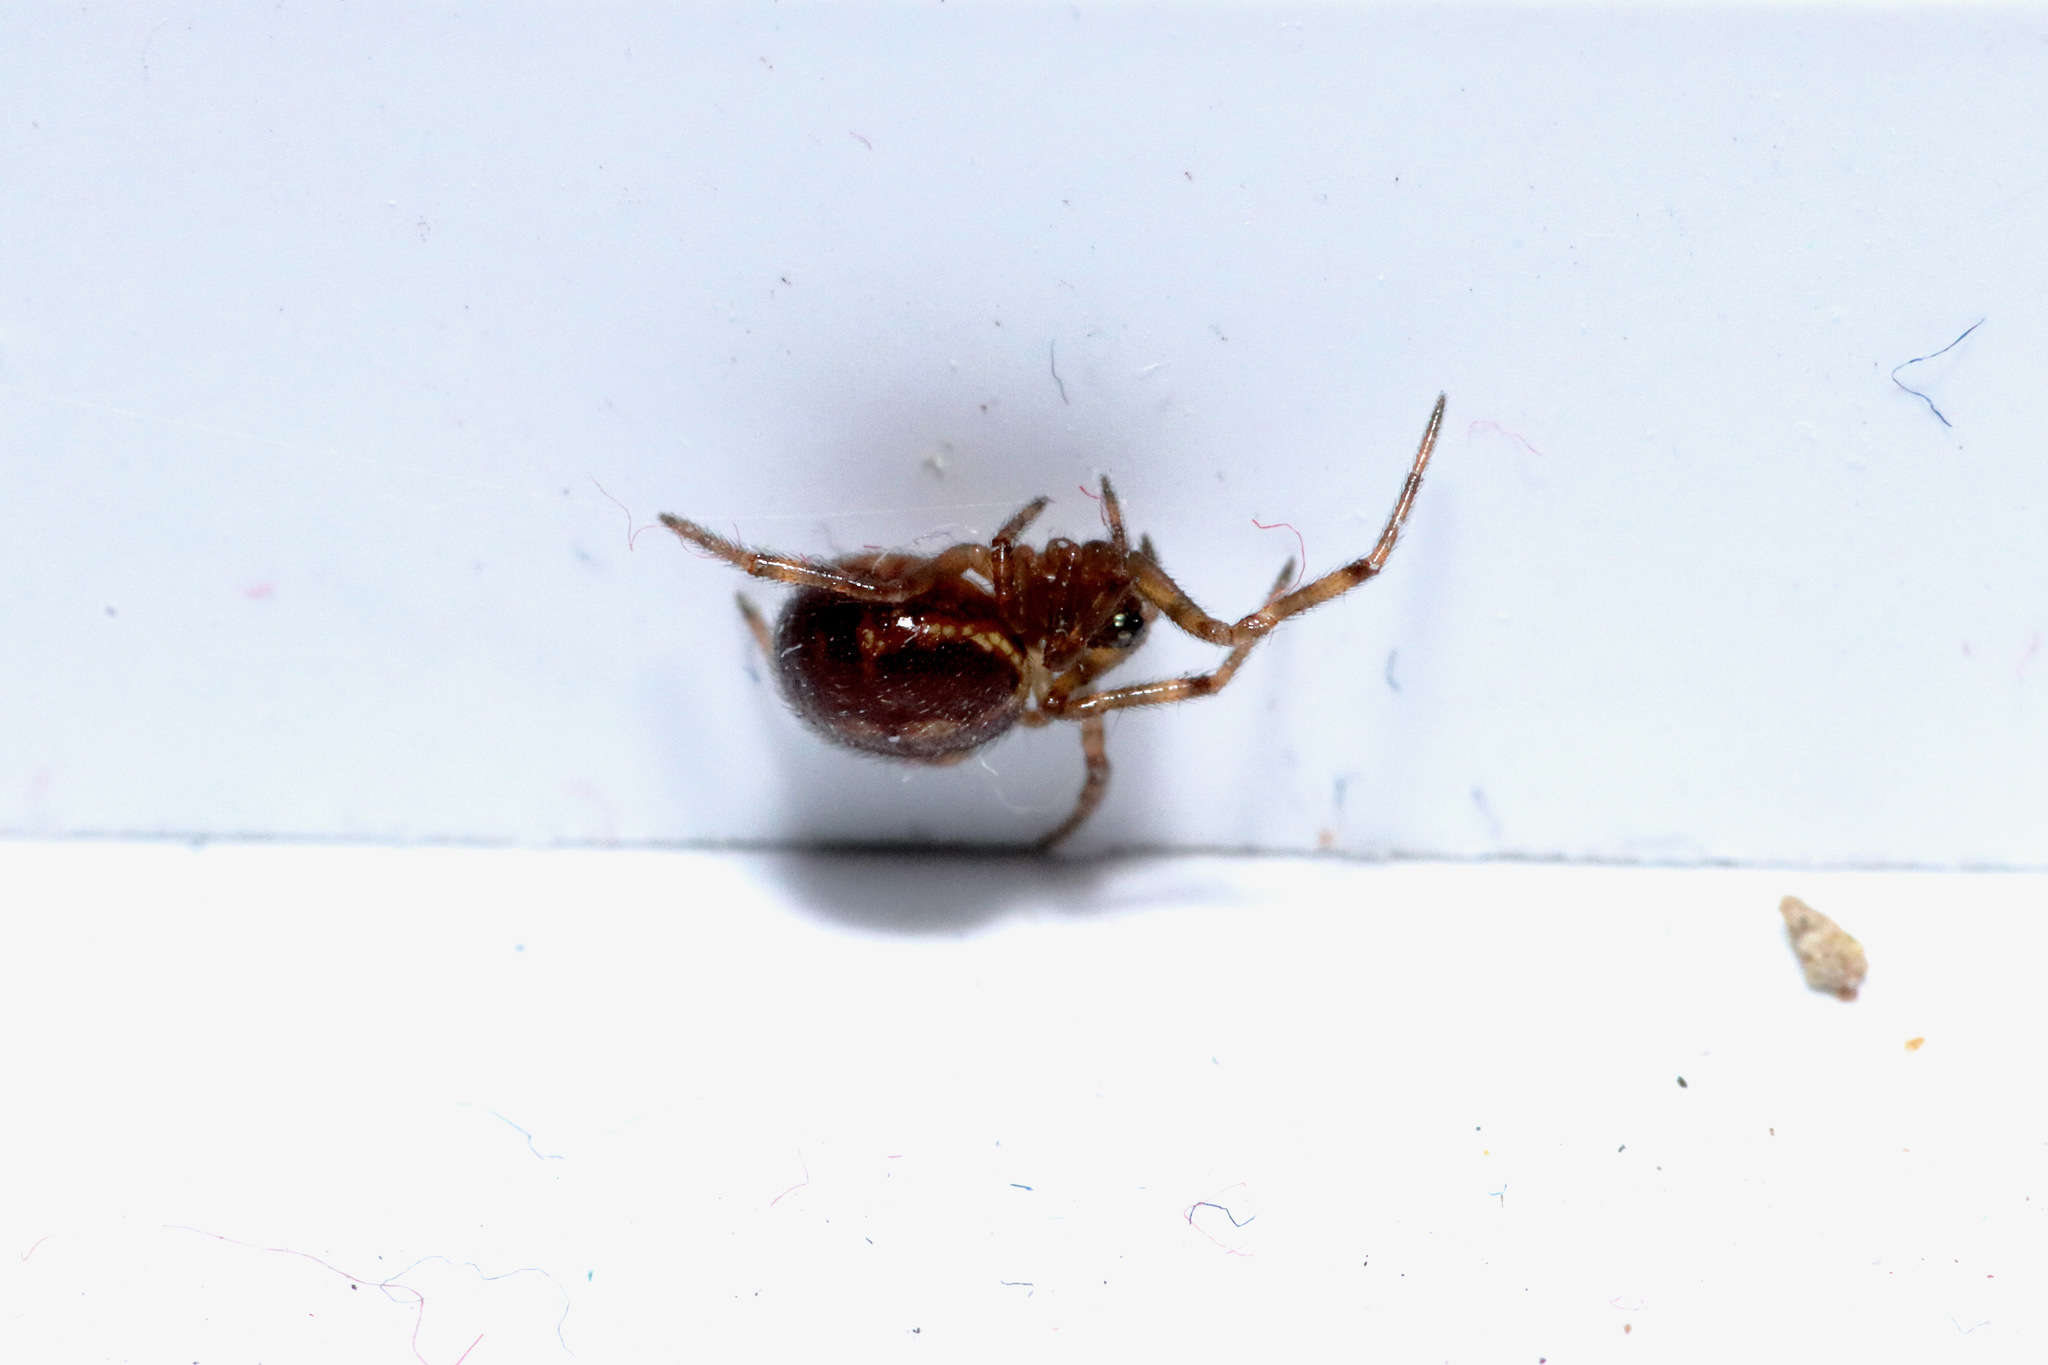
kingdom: Animalia
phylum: Arthropoda
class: Arachnida
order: Araneae
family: Theridiidae
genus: Steatoda
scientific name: Steatoda borealis
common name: Boreal combfoot
